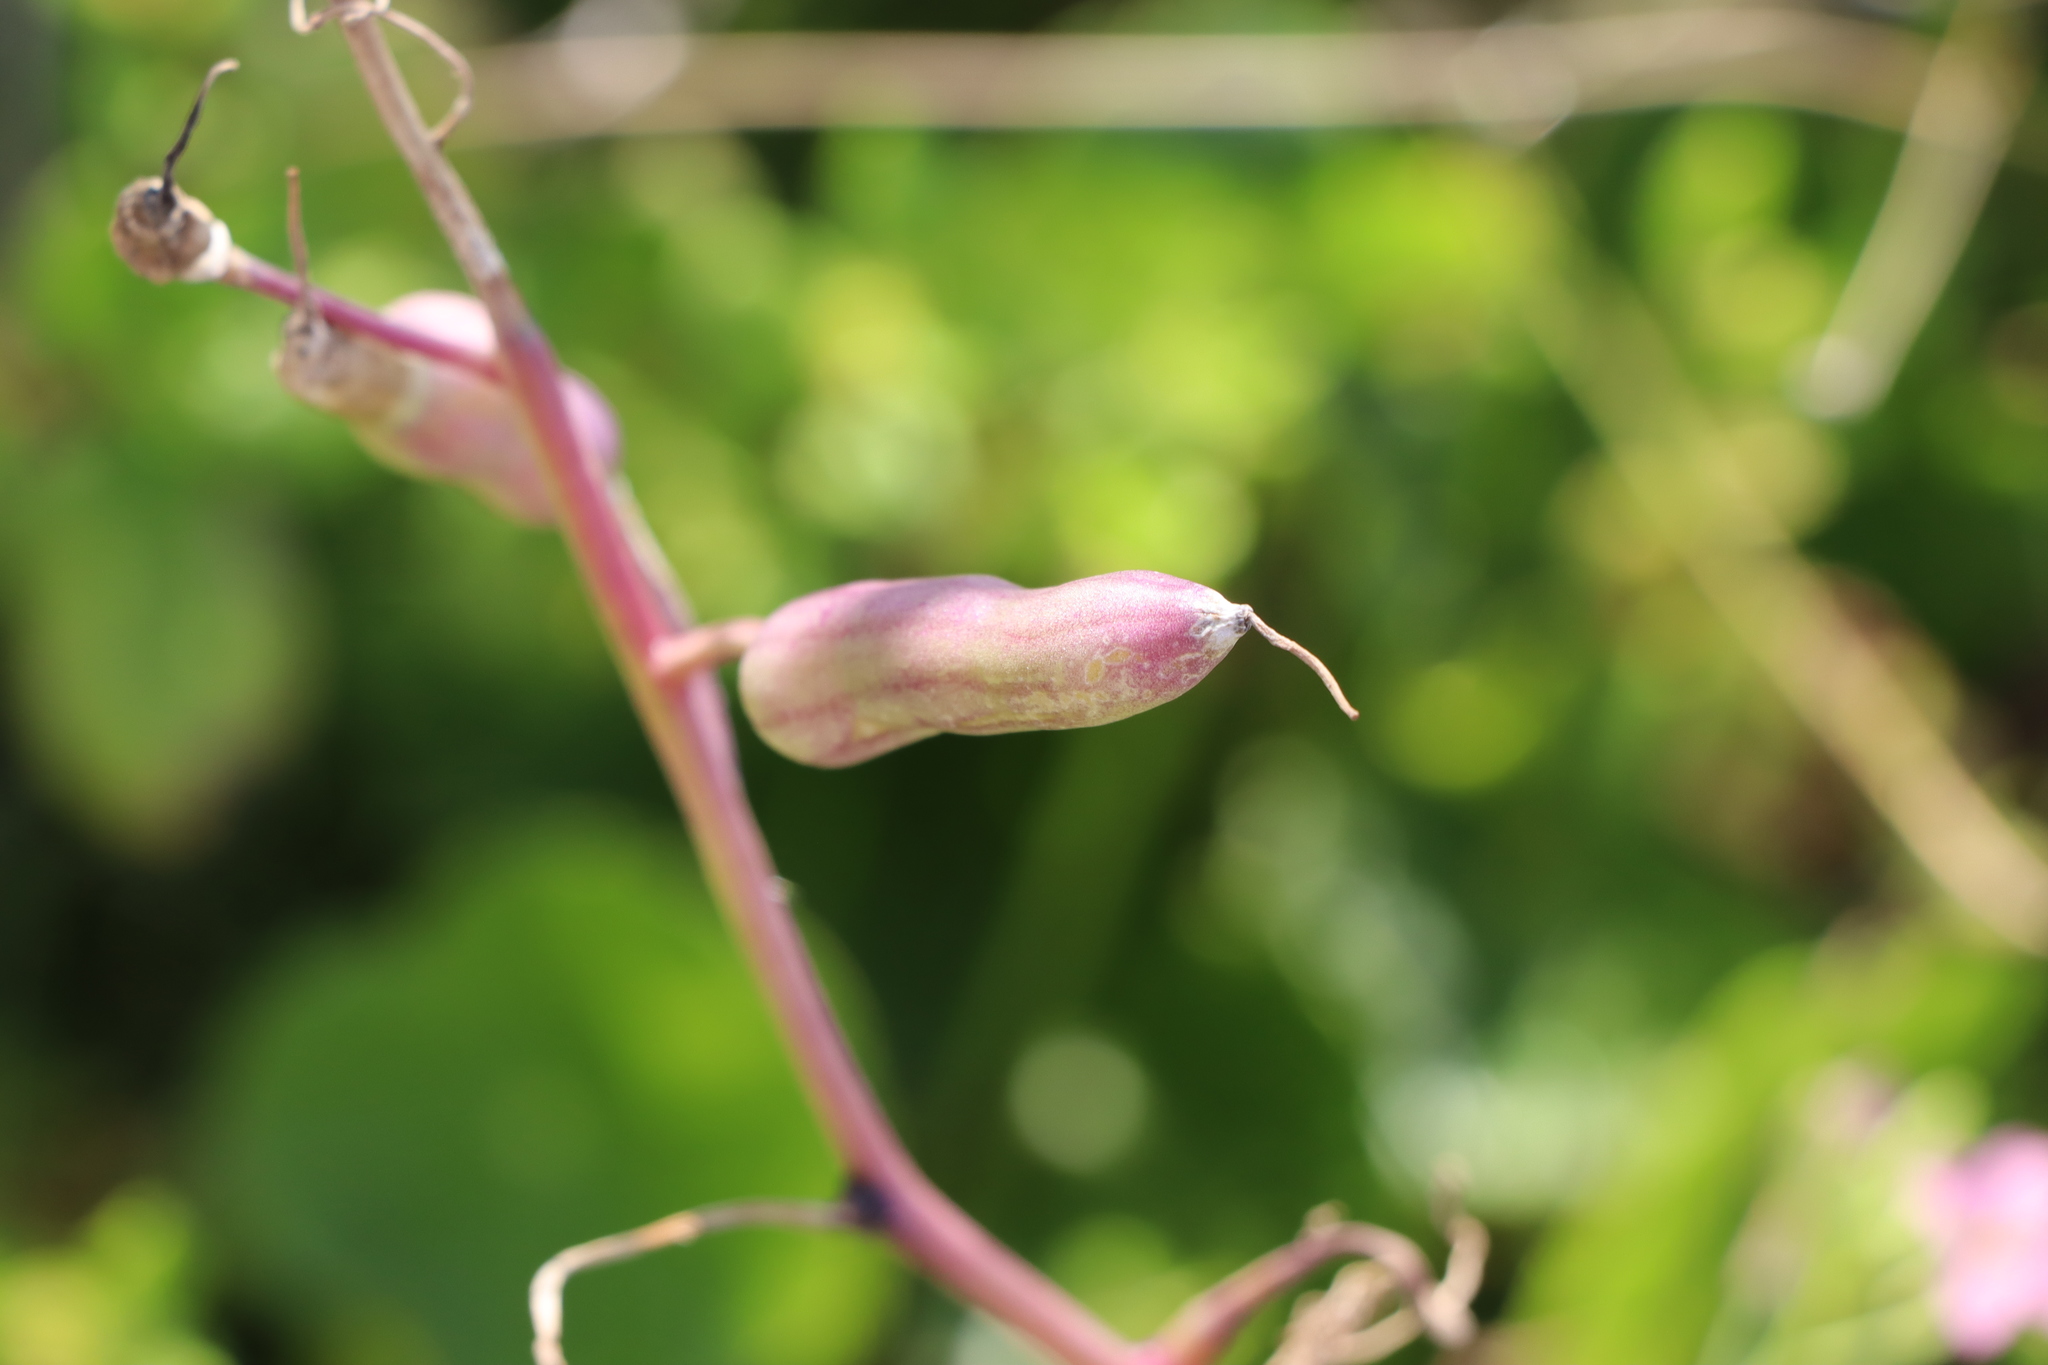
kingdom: Plantae
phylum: Tracheophyta
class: Magnoliopsida
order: Brassicales
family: Brassicaceae
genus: Raphanus
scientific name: Raphanus sativus
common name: Cultivated radish
